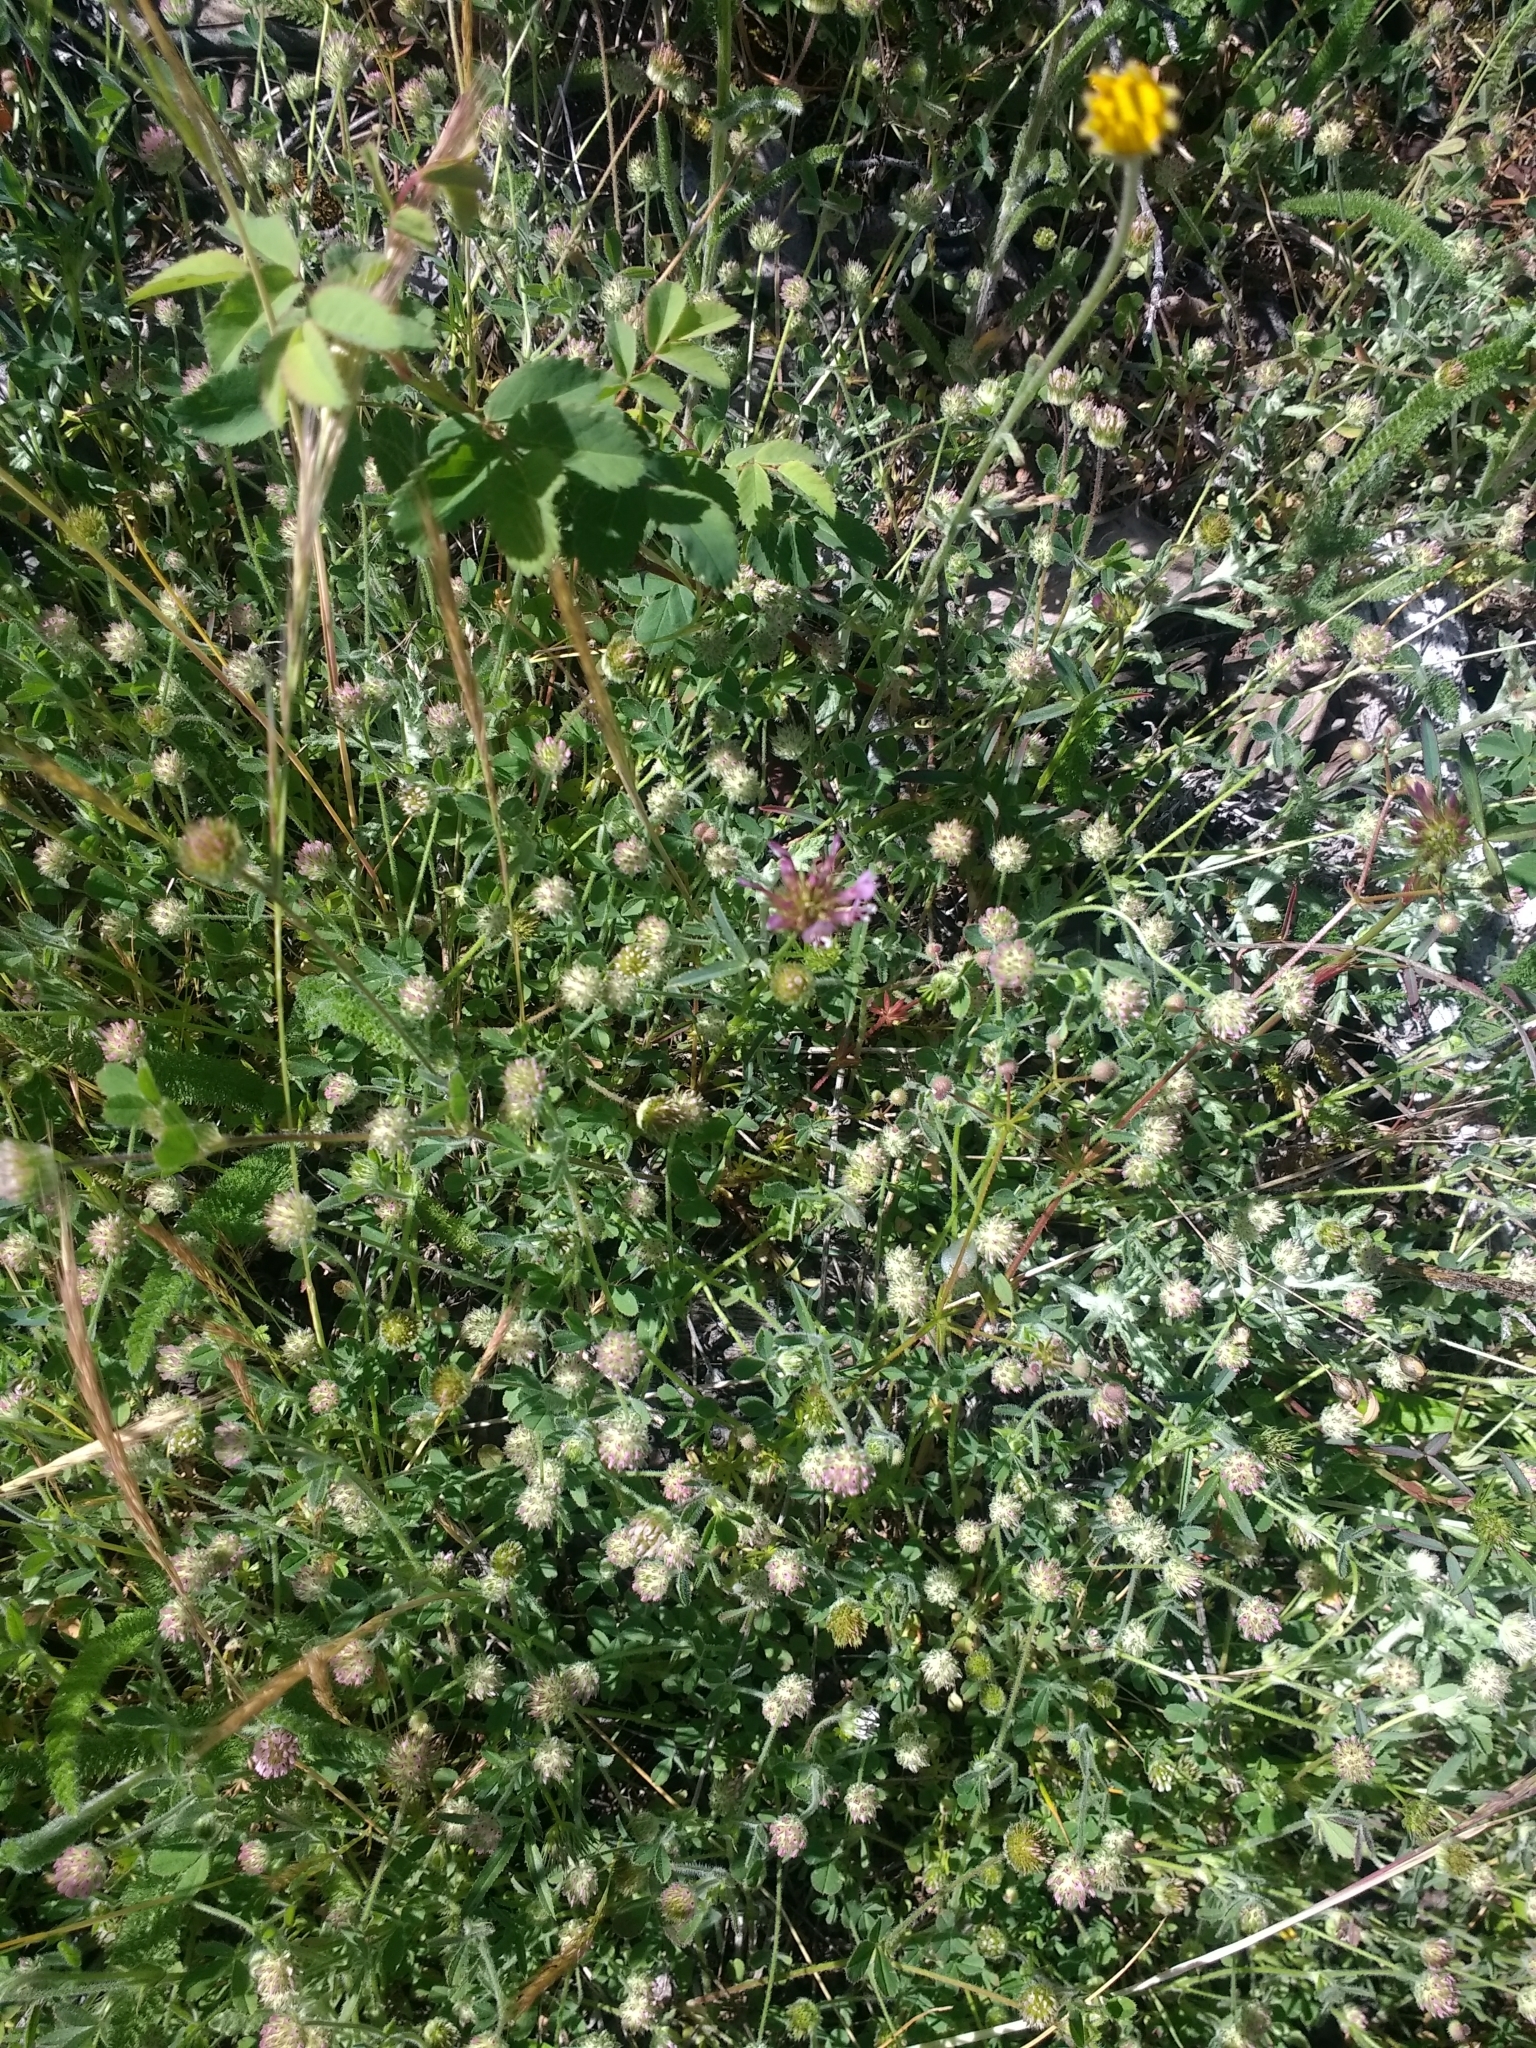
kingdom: Plantae
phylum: Tracheophyta
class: Magnoliopsida
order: Fabales
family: Fabaceae
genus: Trifolium
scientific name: Trifolium microcephalum
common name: Maiden clover
